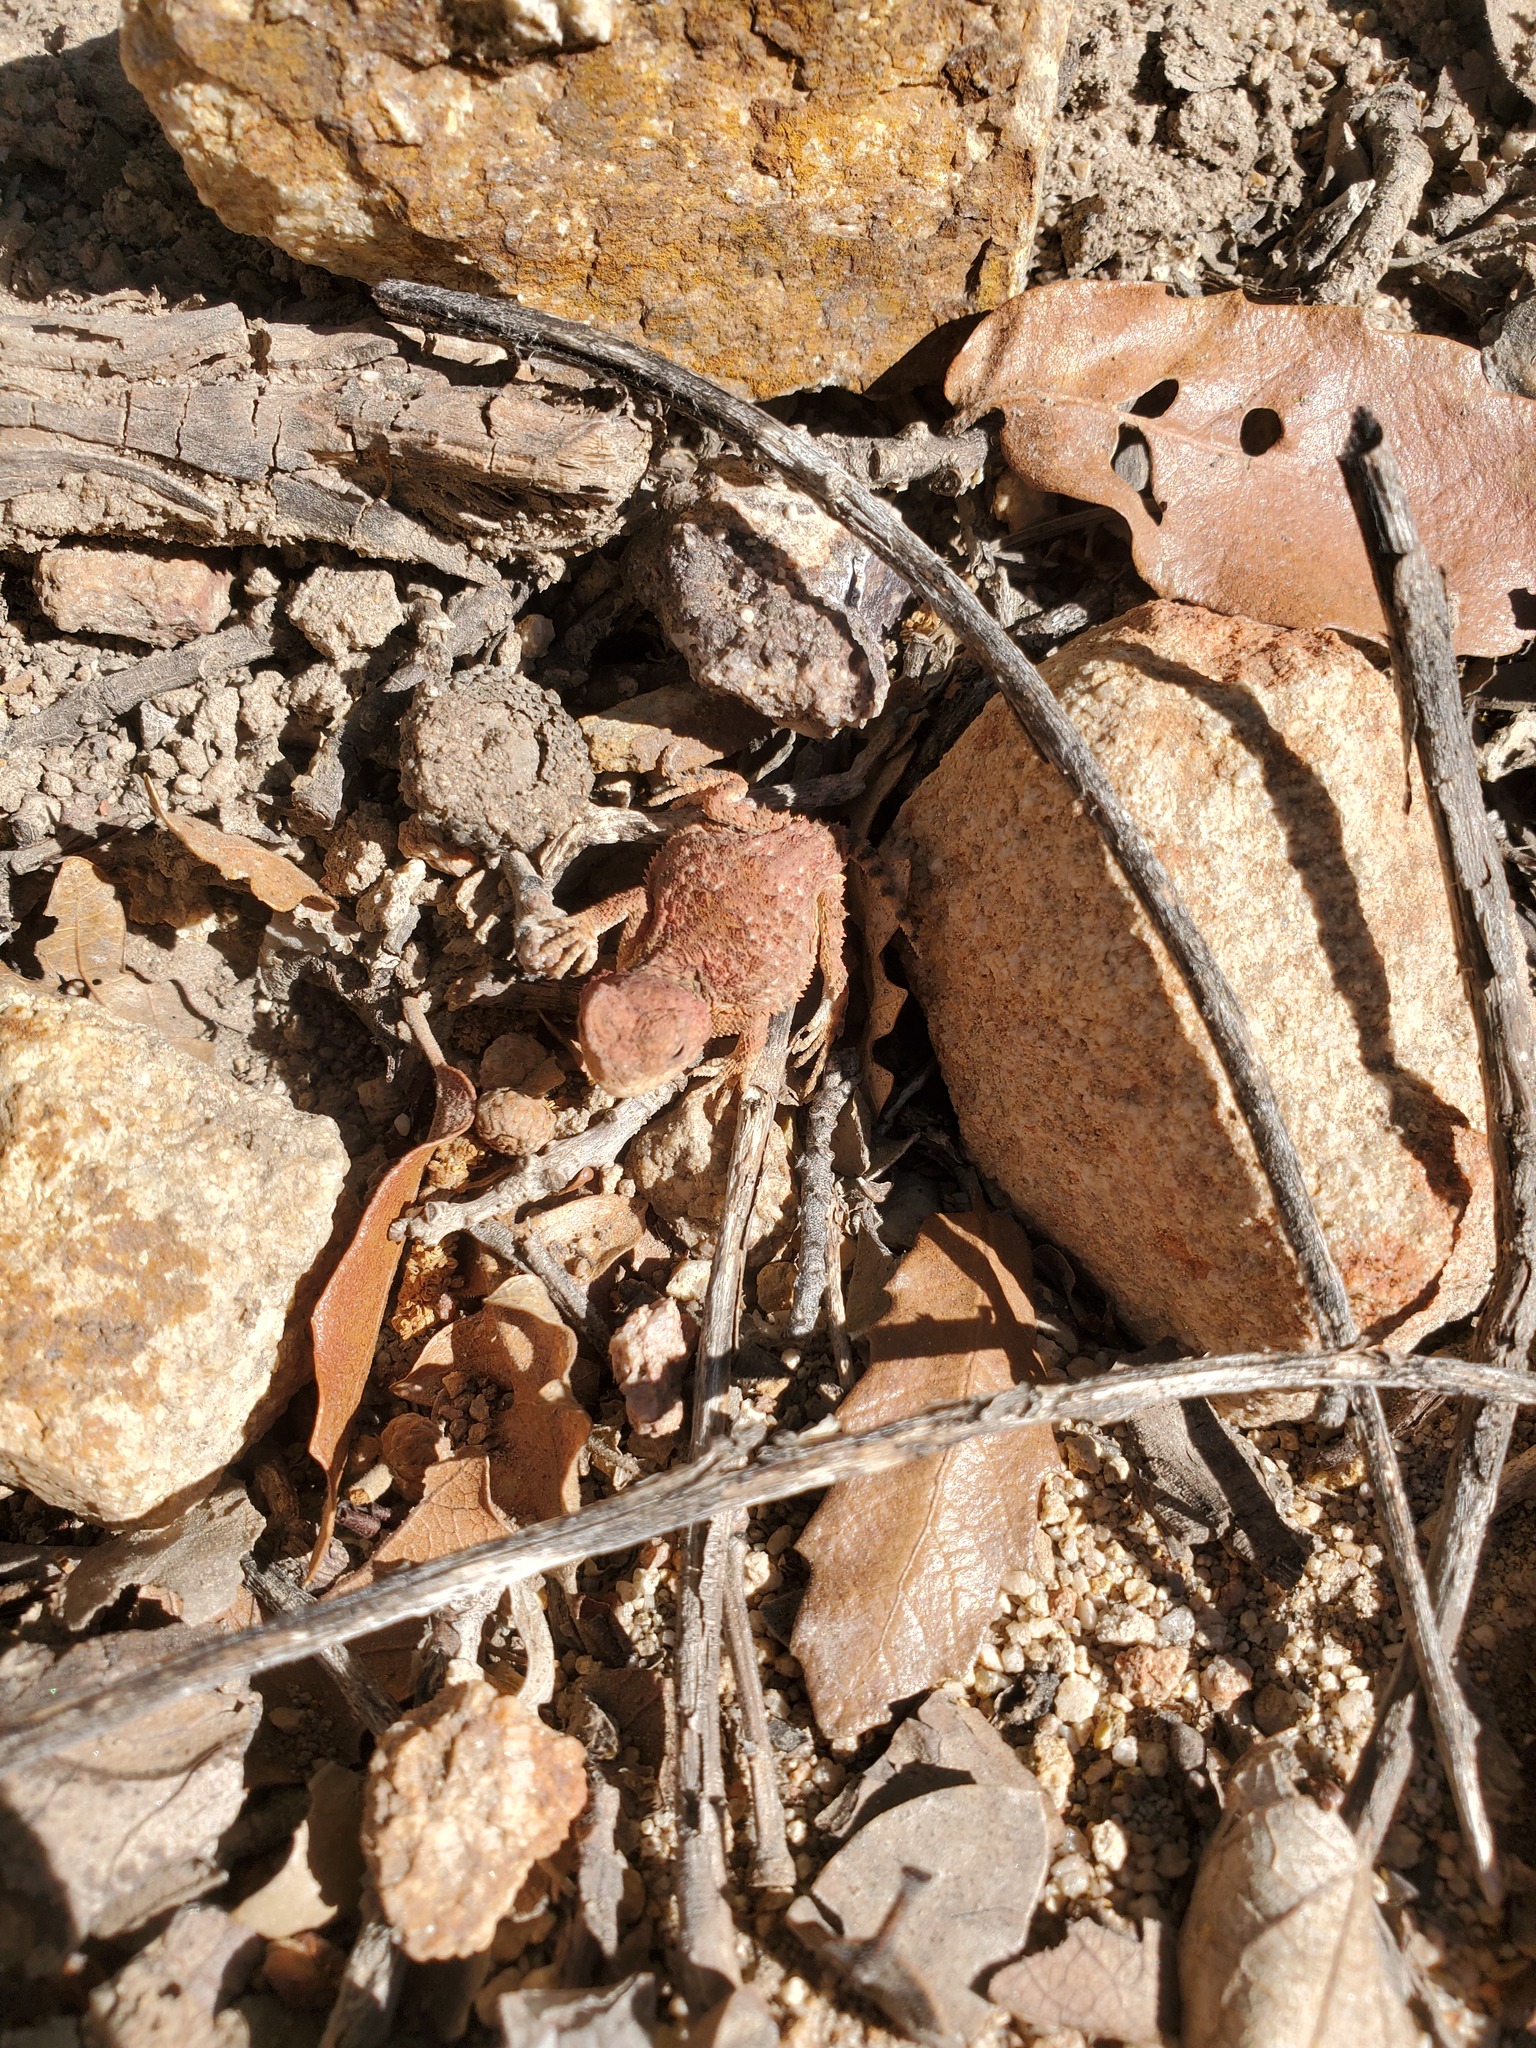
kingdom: Animalia
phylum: Chordata
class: Squamata
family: Phrynosomatidae
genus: Phrynosoma
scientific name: Phrynosoma hernandesi
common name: Greater short-horned lizard
